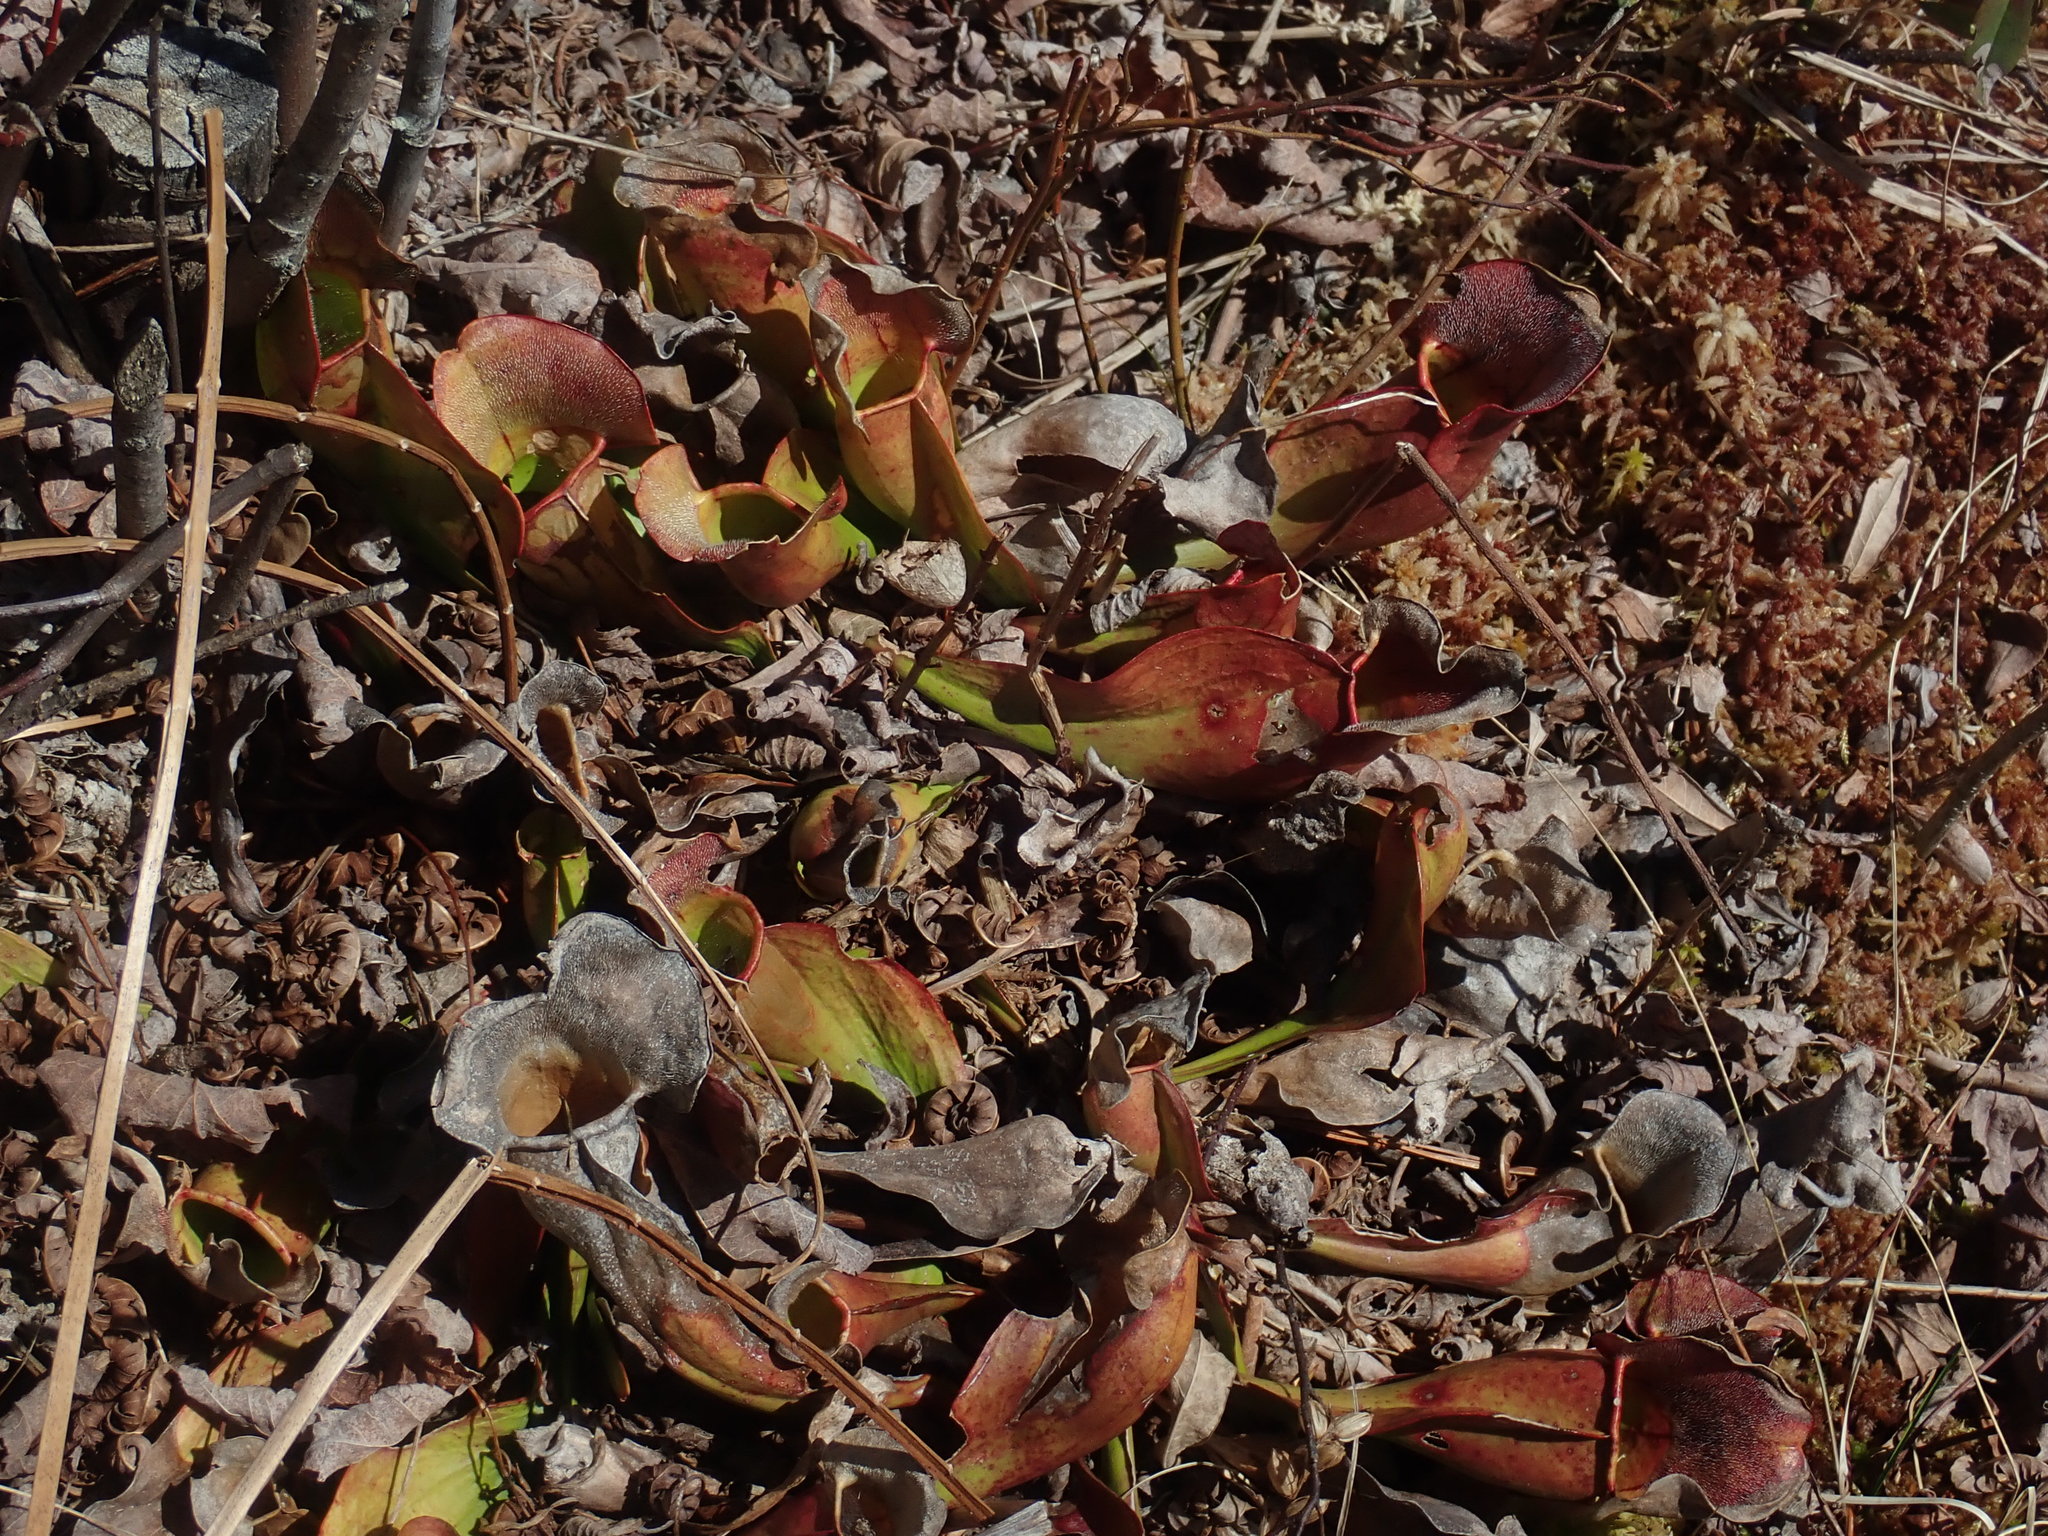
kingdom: Plantae
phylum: Tracheophyta
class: Magnoliopsida
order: Ericales
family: Sarraceniaceae
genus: Sarracenia
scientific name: Sarracenia purpurea
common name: Pitcherplant
